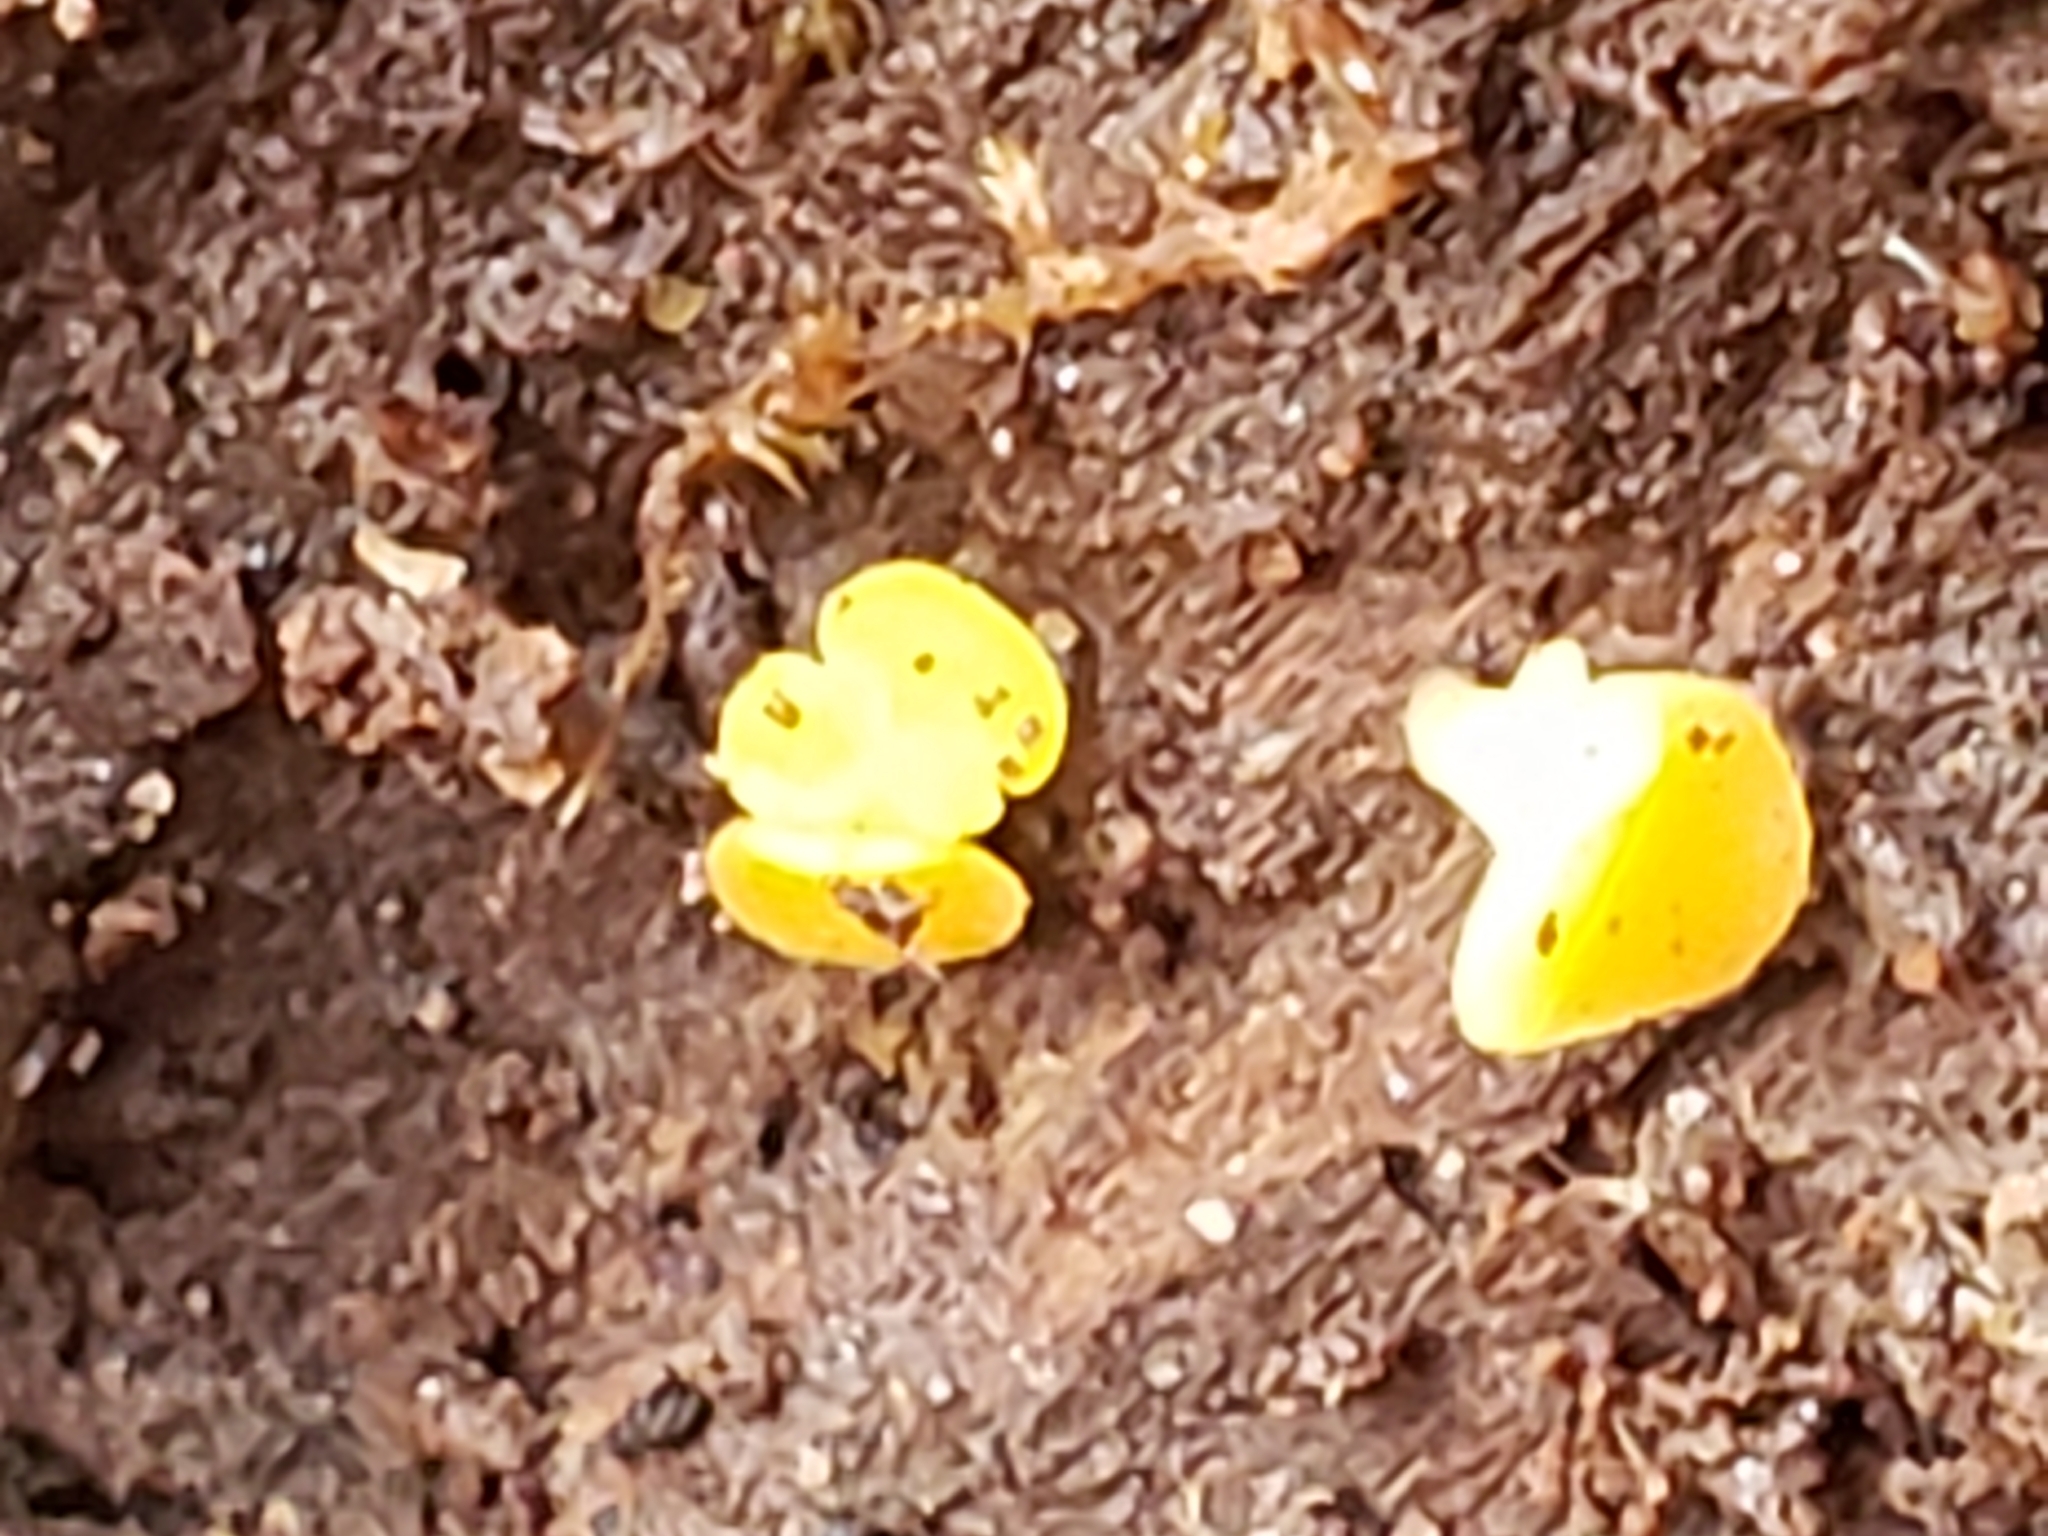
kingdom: Fungi
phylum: Ascomycota
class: Leotiomycetes
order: Helotiales
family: Pezizellaceae
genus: Calycina
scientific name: Calycina citrina
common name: Yellow fairy cups
